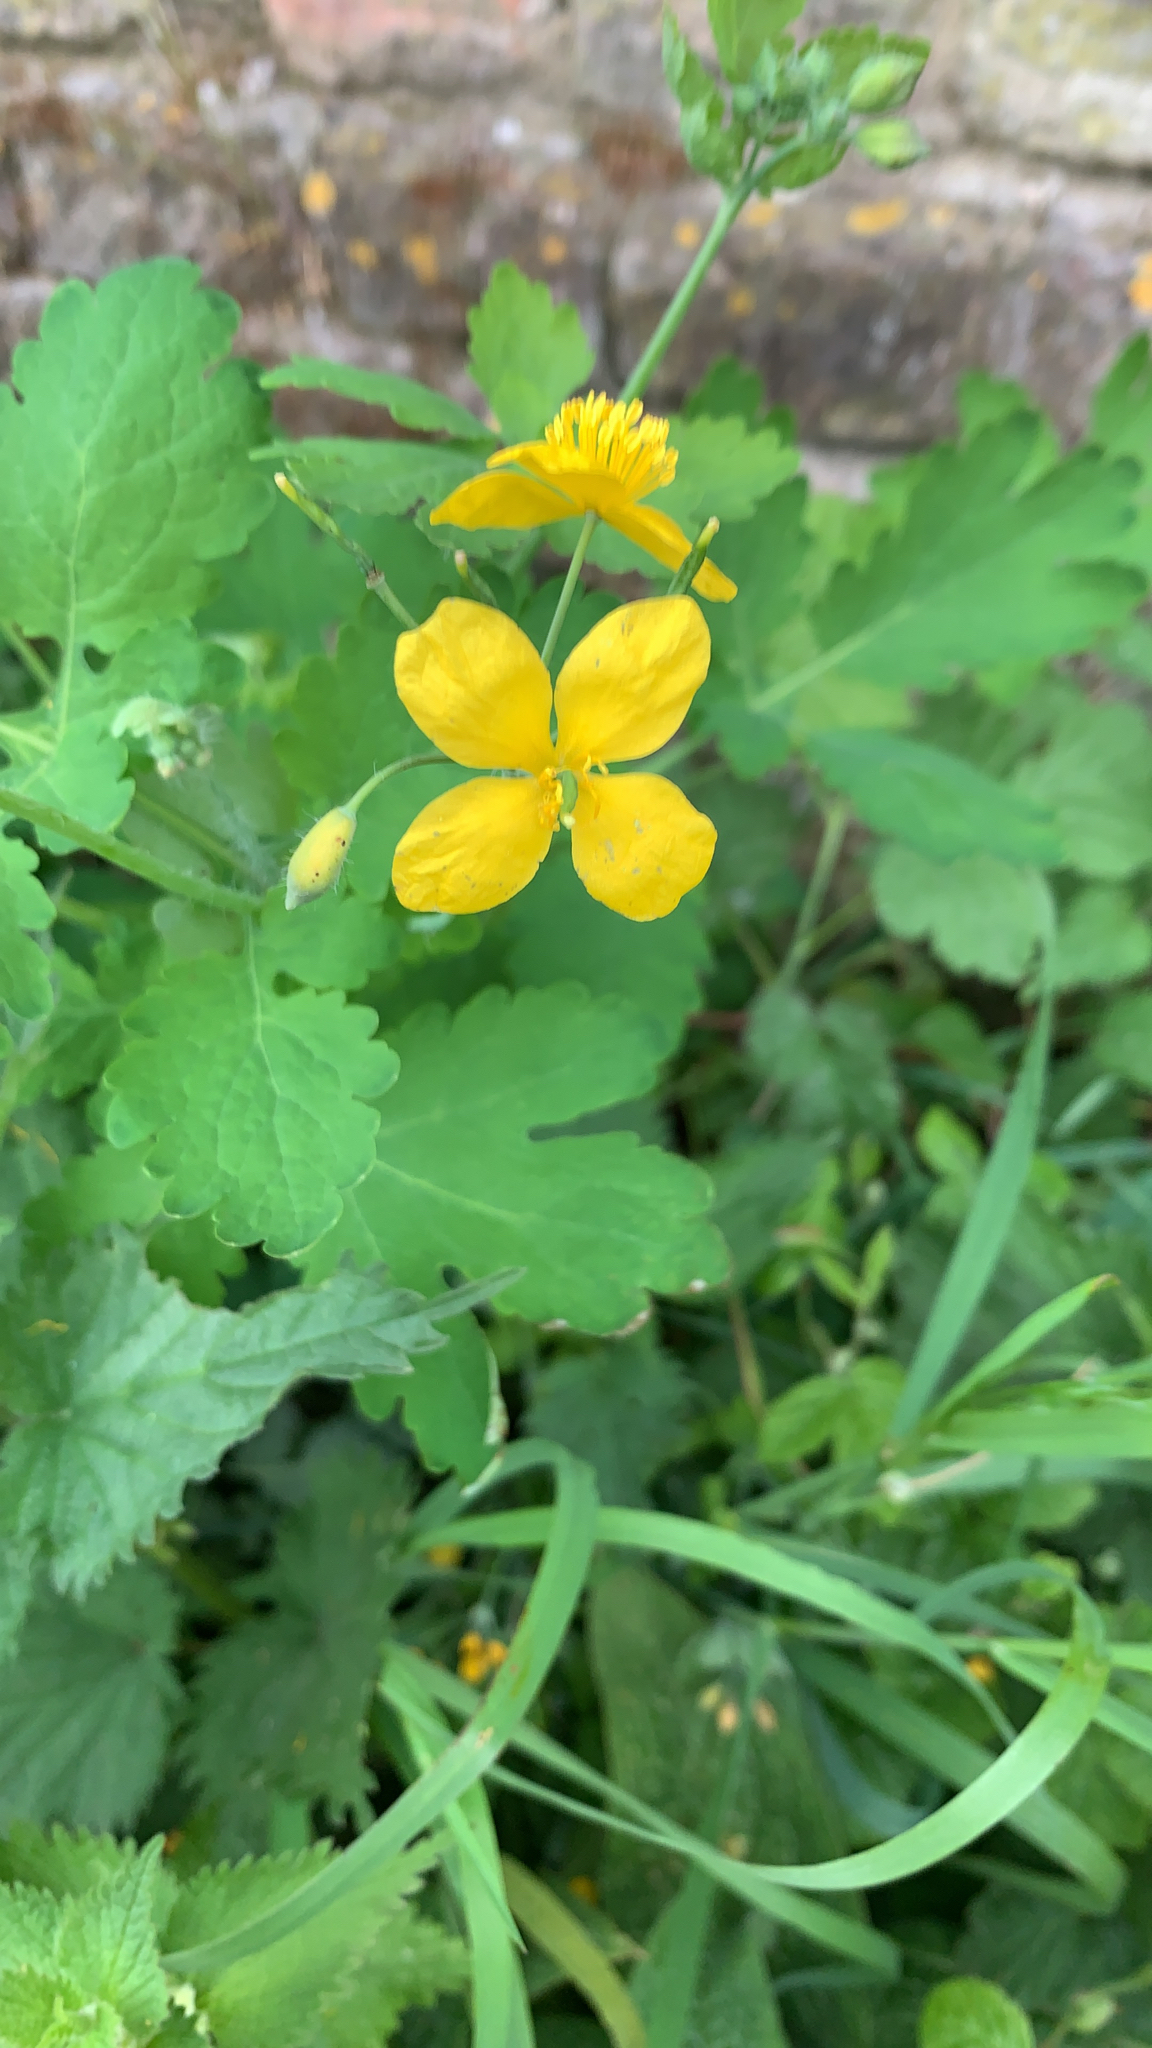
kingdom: Plantae
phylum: Tracheophyta
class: Magnoliopsida
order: Ranunculales
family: Papaveraceae
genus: Chelidonium
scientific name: Chelidonium majus
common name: Greater celandine
